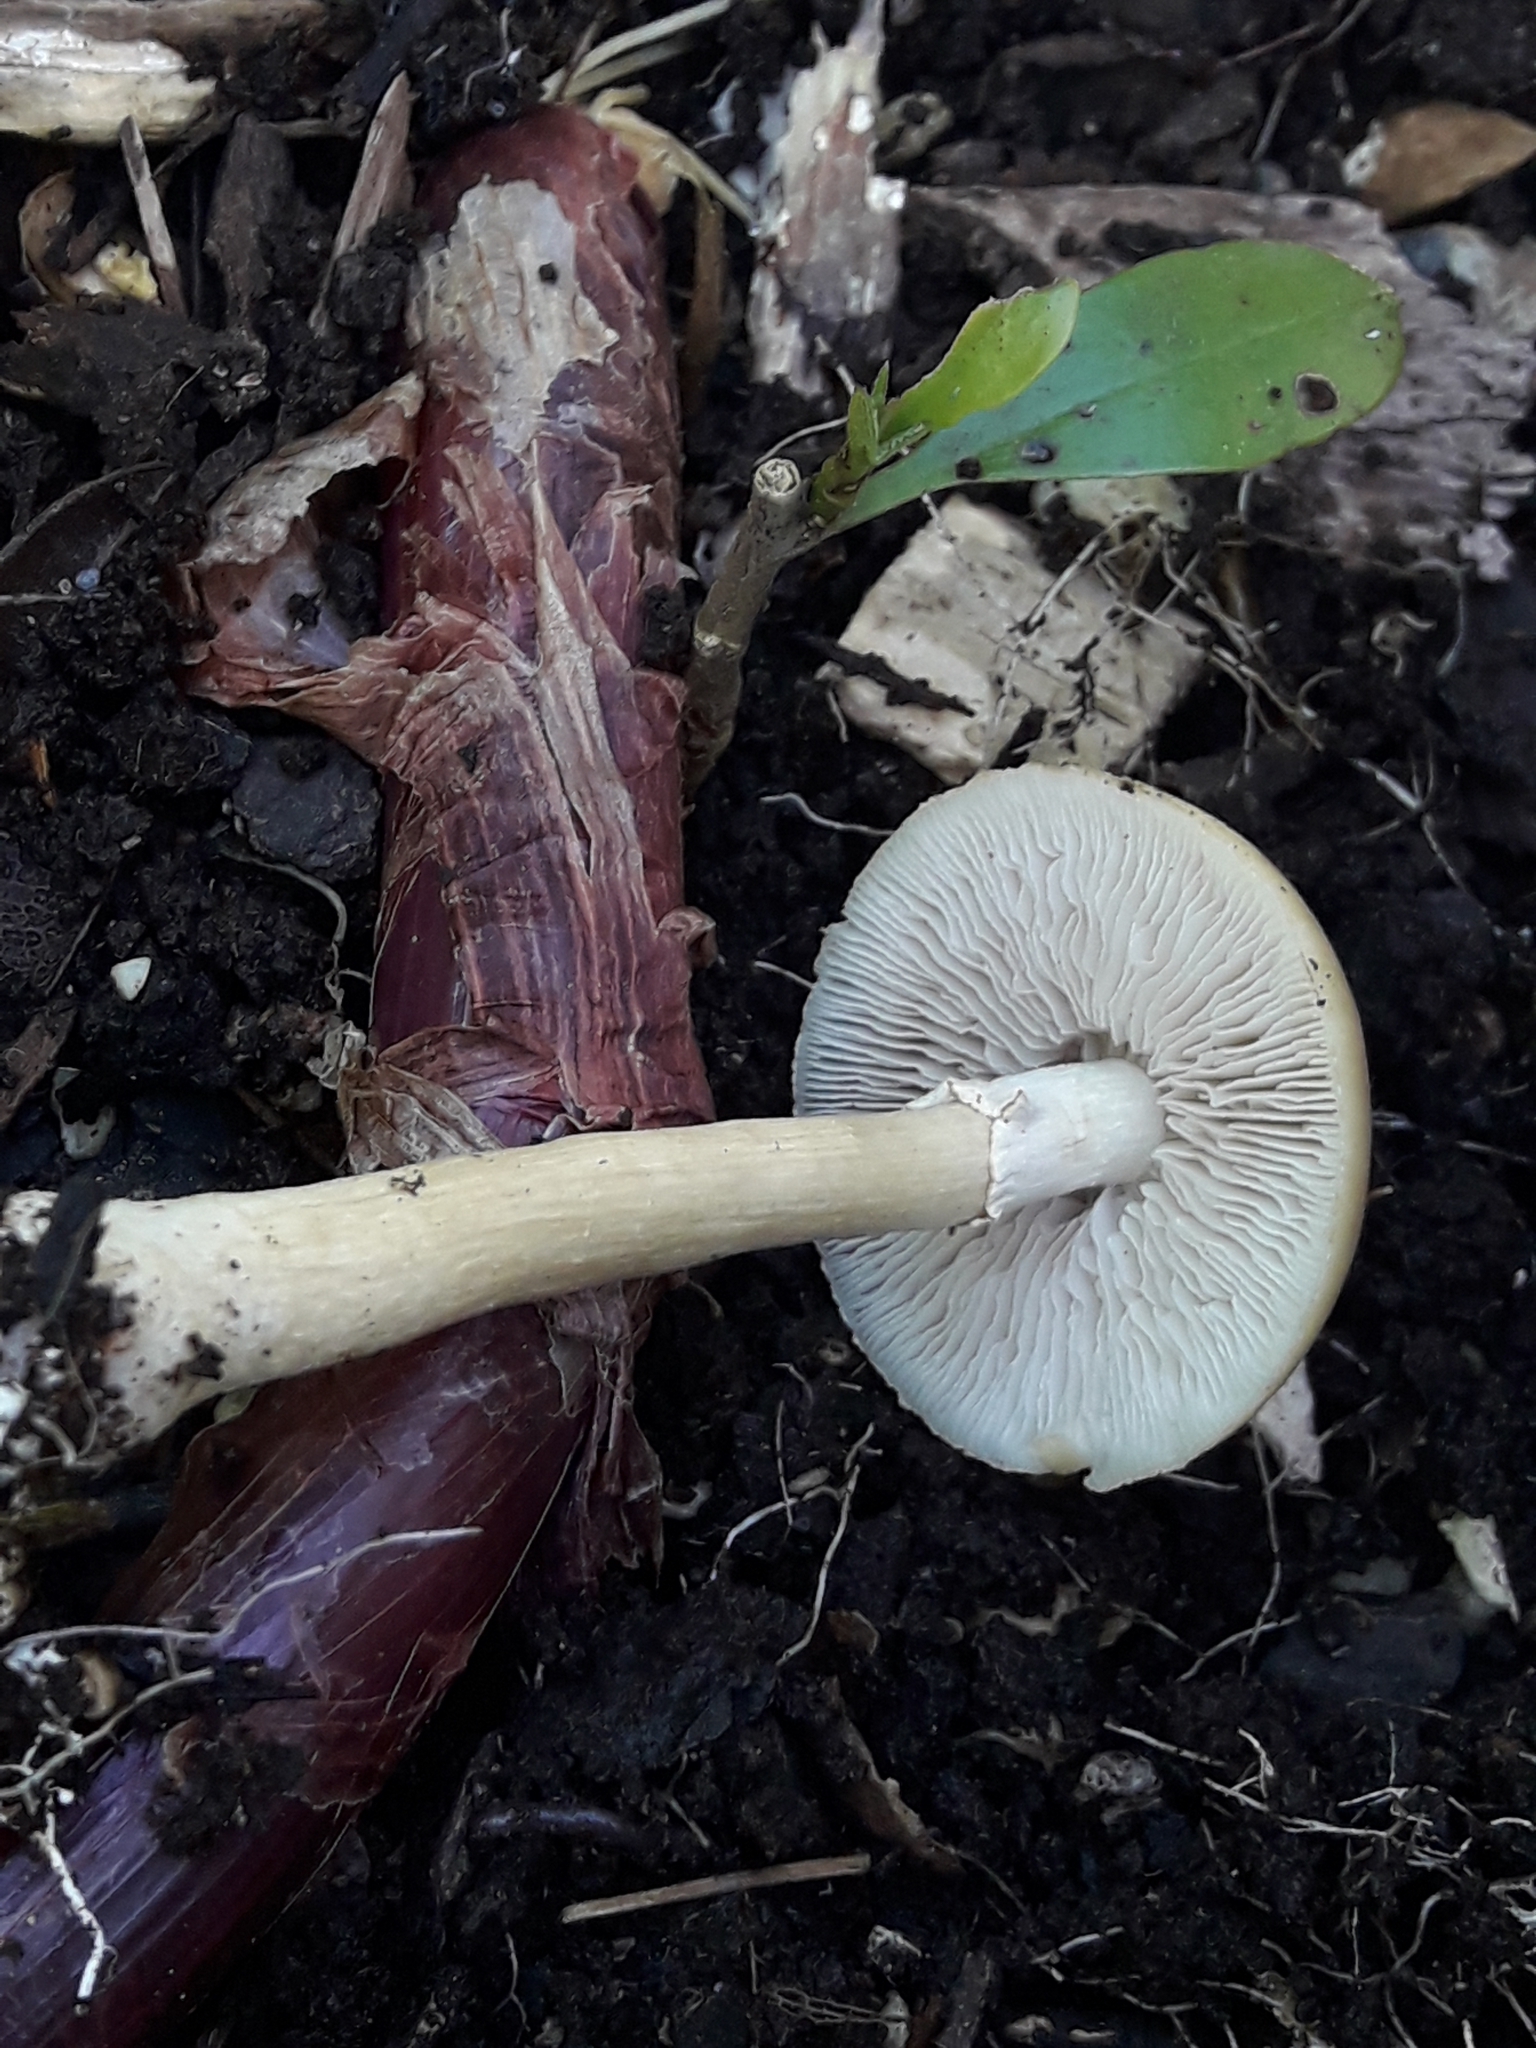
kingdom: Fungi
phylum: Basidiomycota
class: Agaricomycetes
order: Agaricales
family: Strophariaceae
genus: Agrocybe
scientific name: Agrocybe praecox
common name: Spring fieldcap
